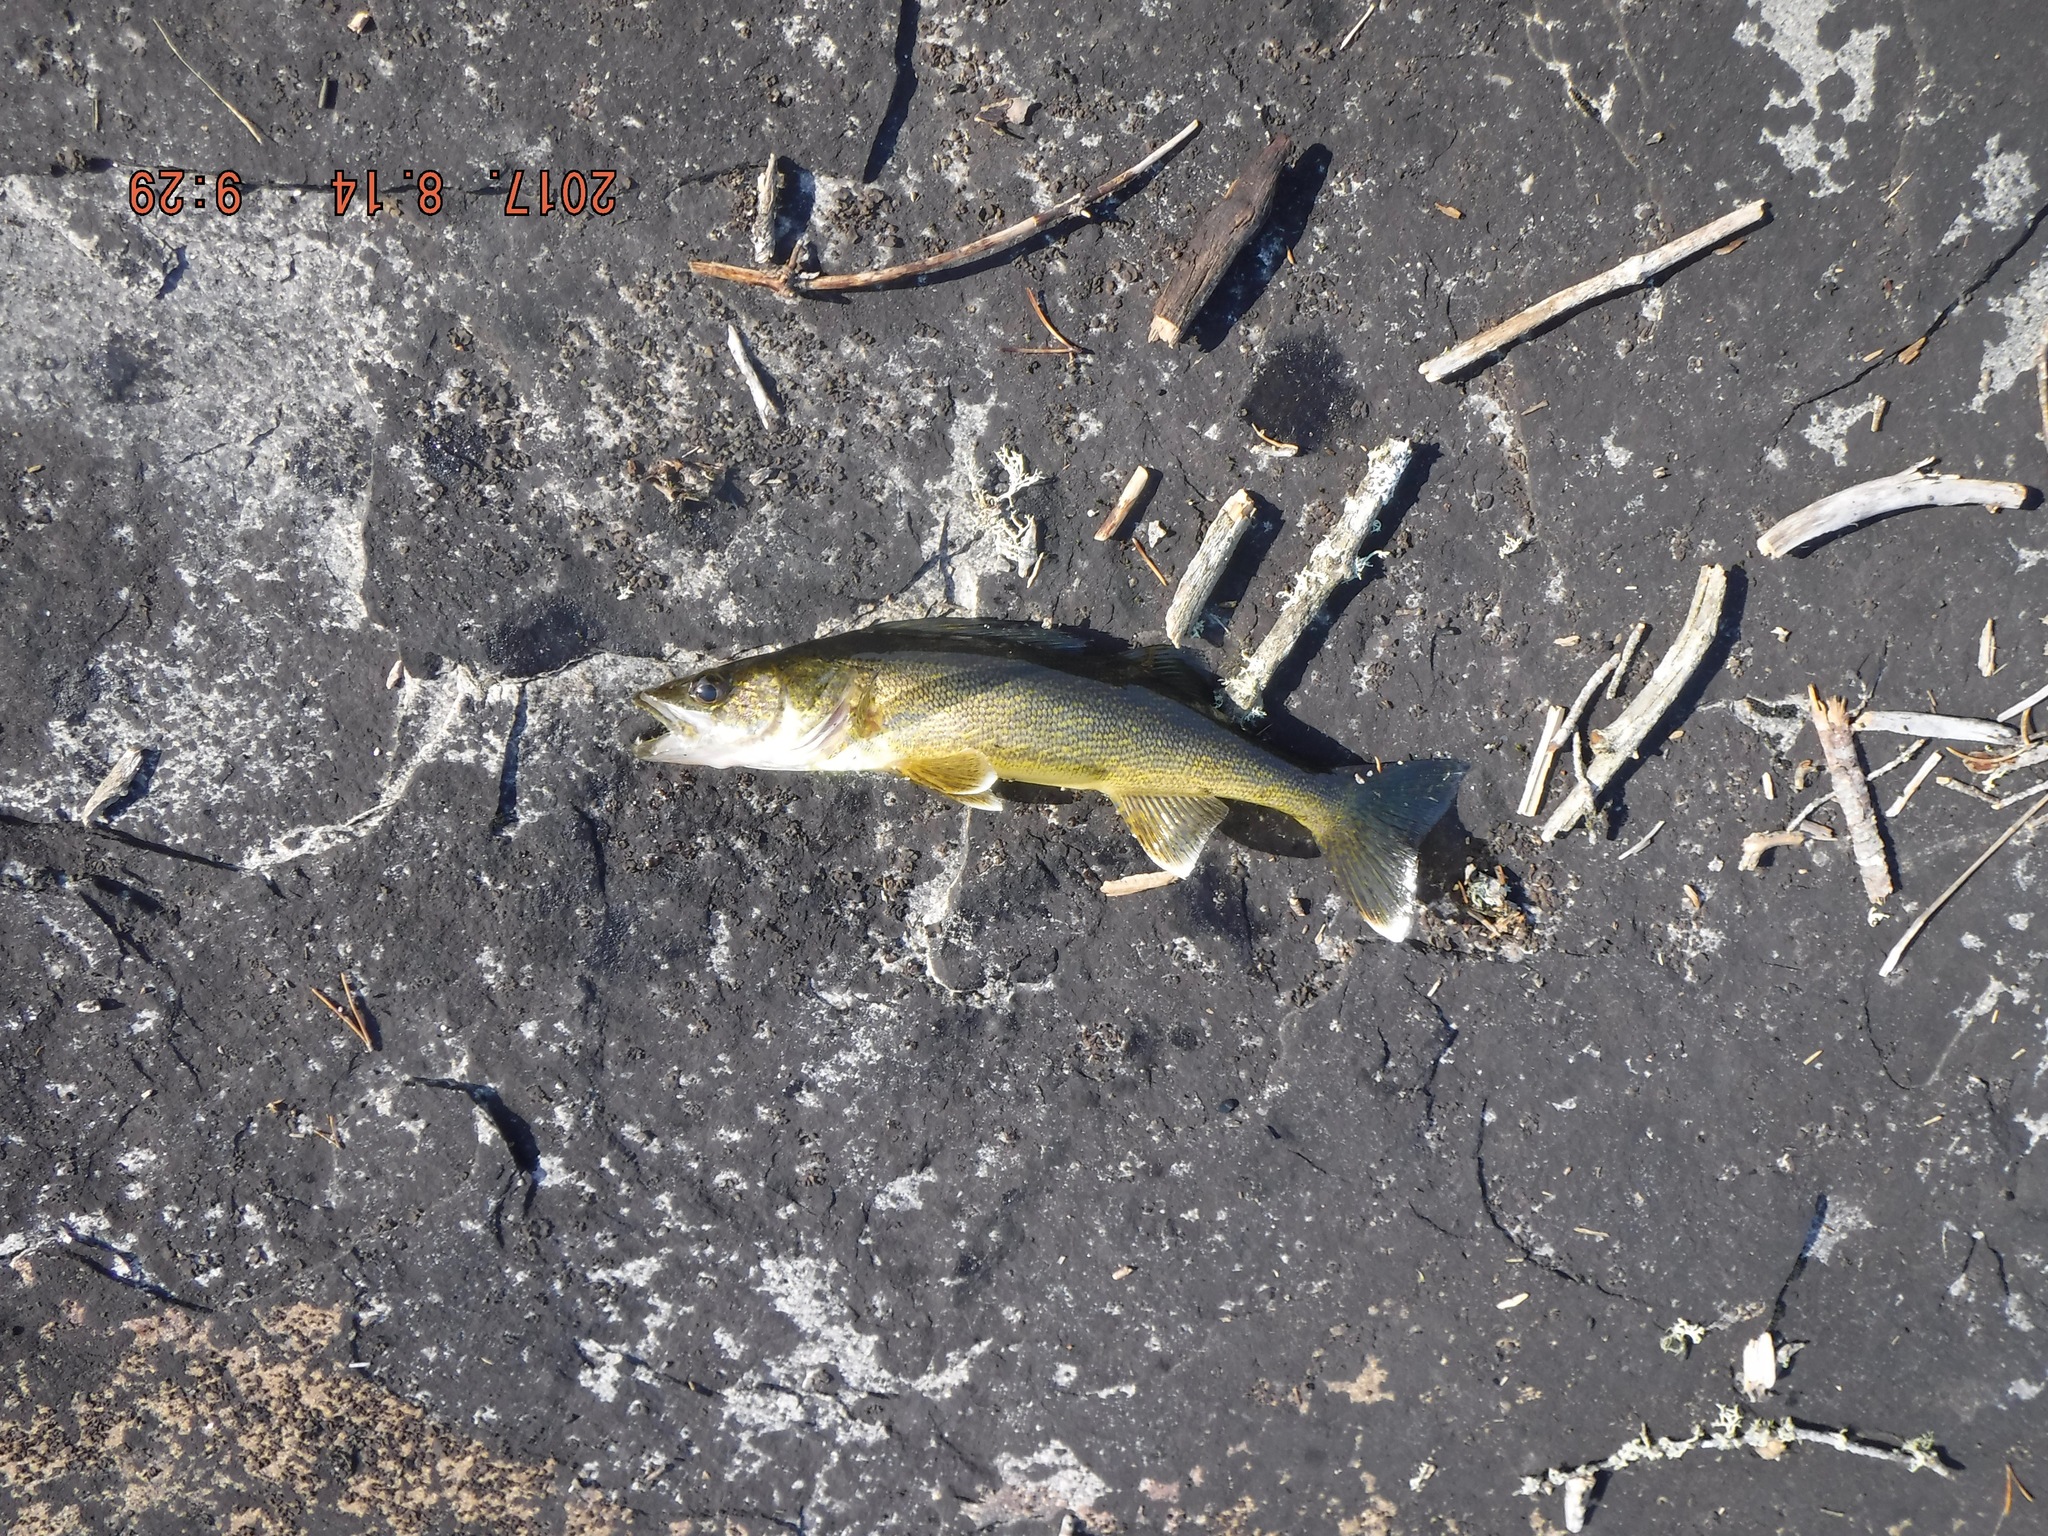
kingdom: Animalia
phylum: Chordata
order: Perciformes
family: Percidae
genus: Sander
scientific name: Sander vitreus
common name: Walleye
